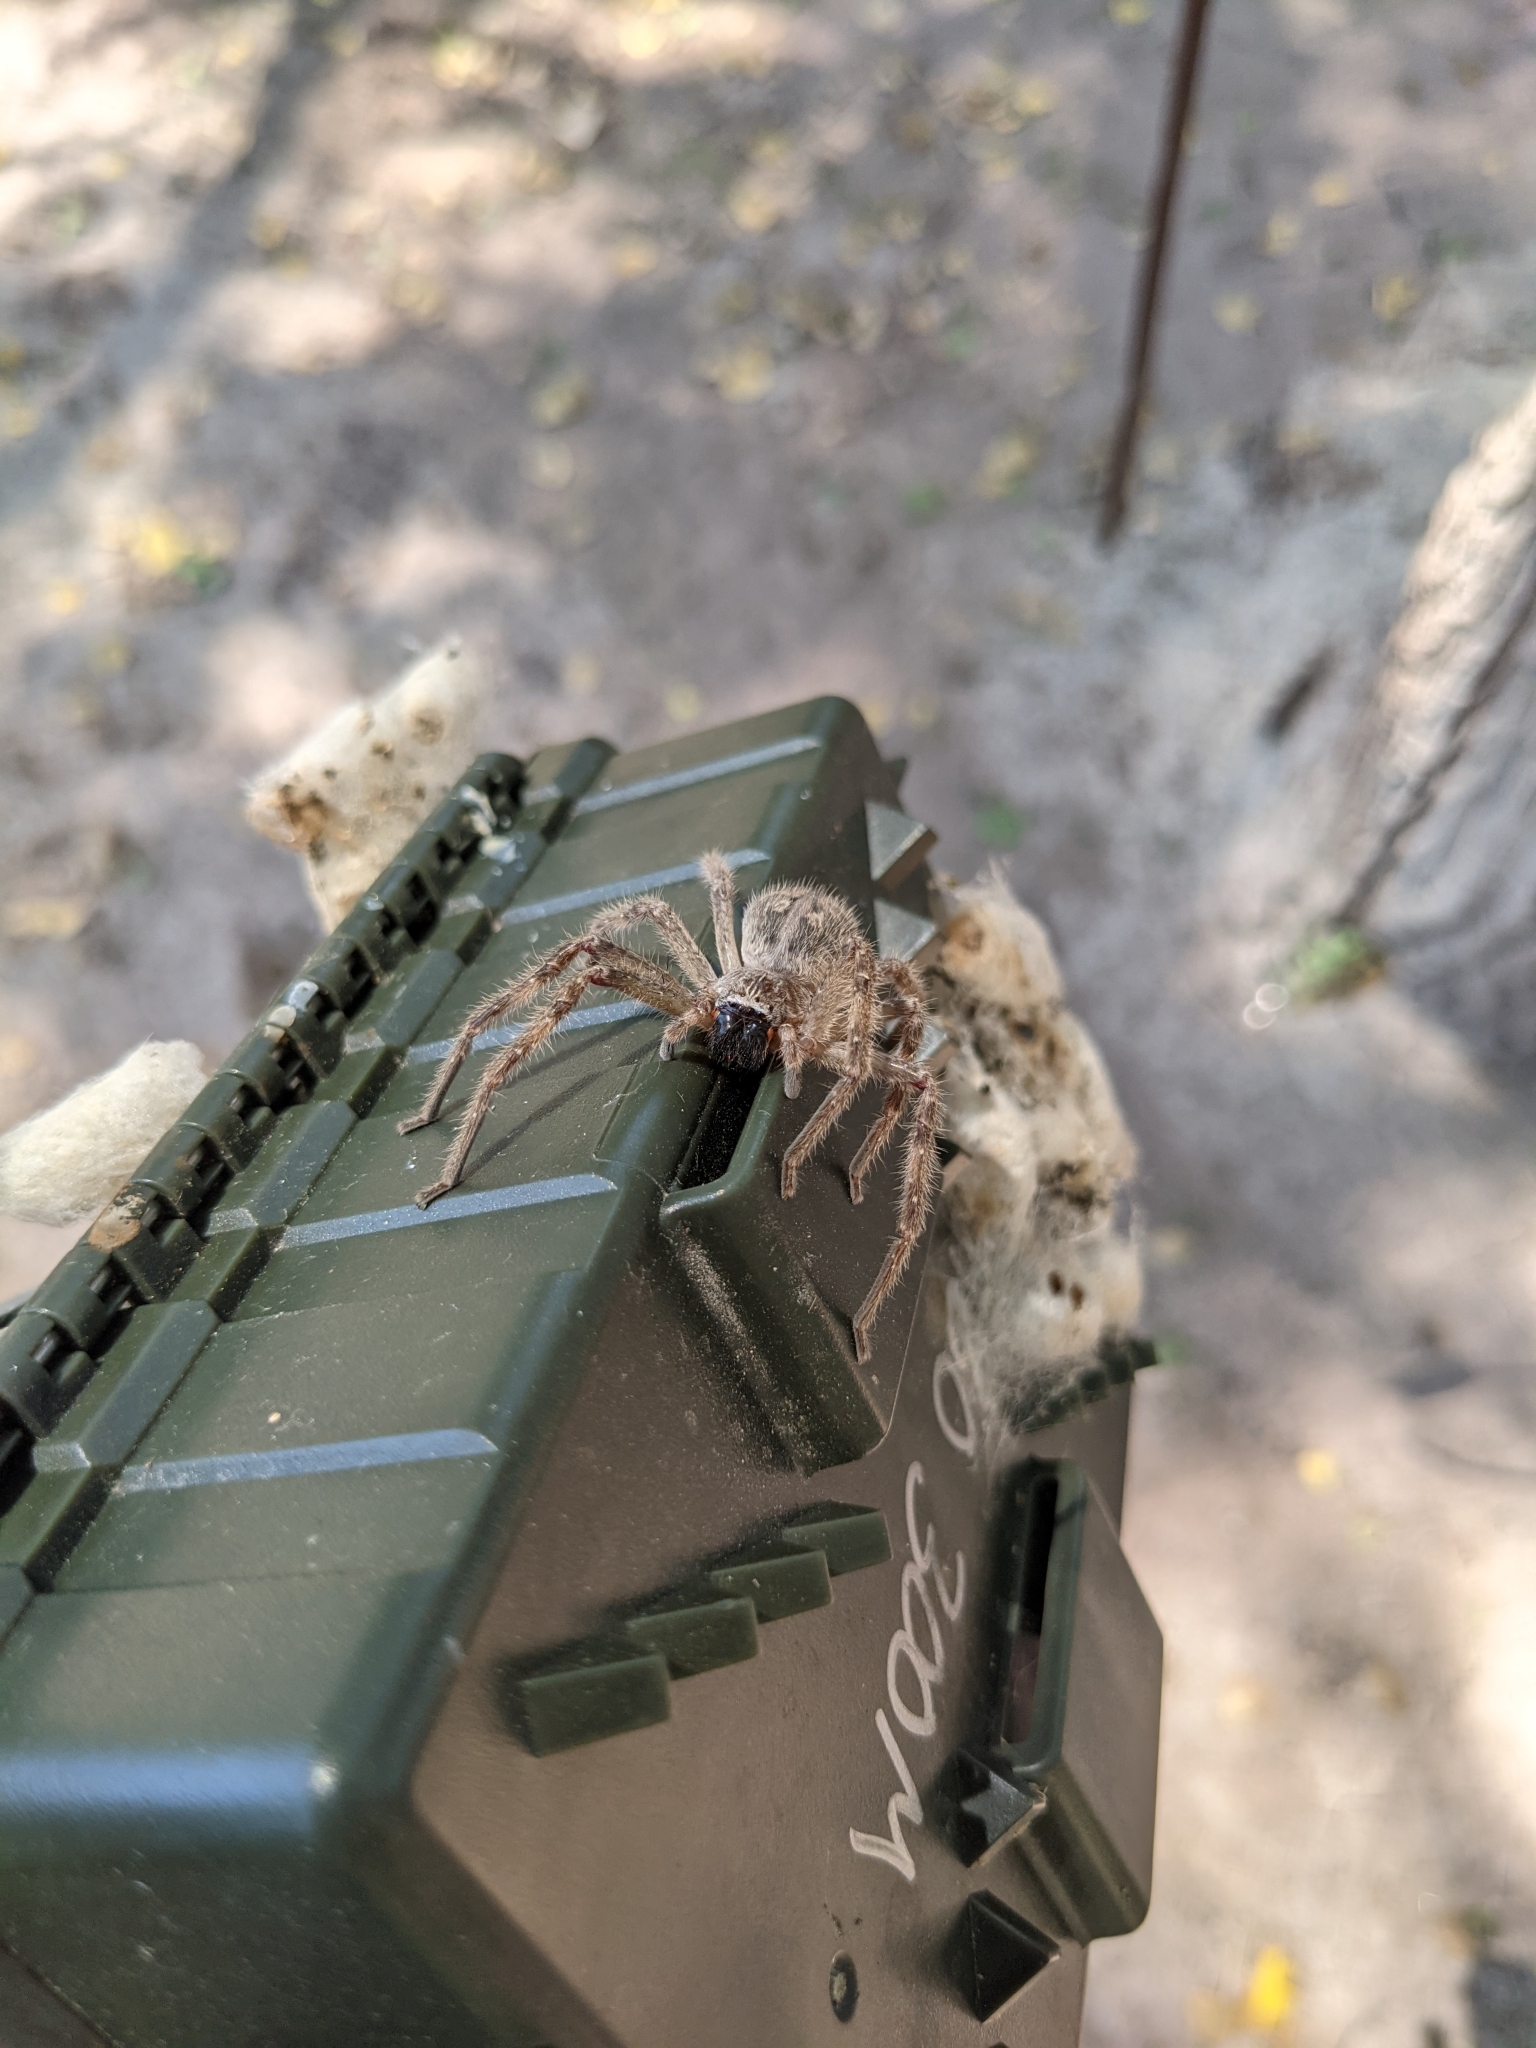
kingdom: Animalia
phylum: Arthropoda
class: Arachnida
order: Araneae
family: Sparassidae
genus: Olios
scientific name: Olios giganteus
